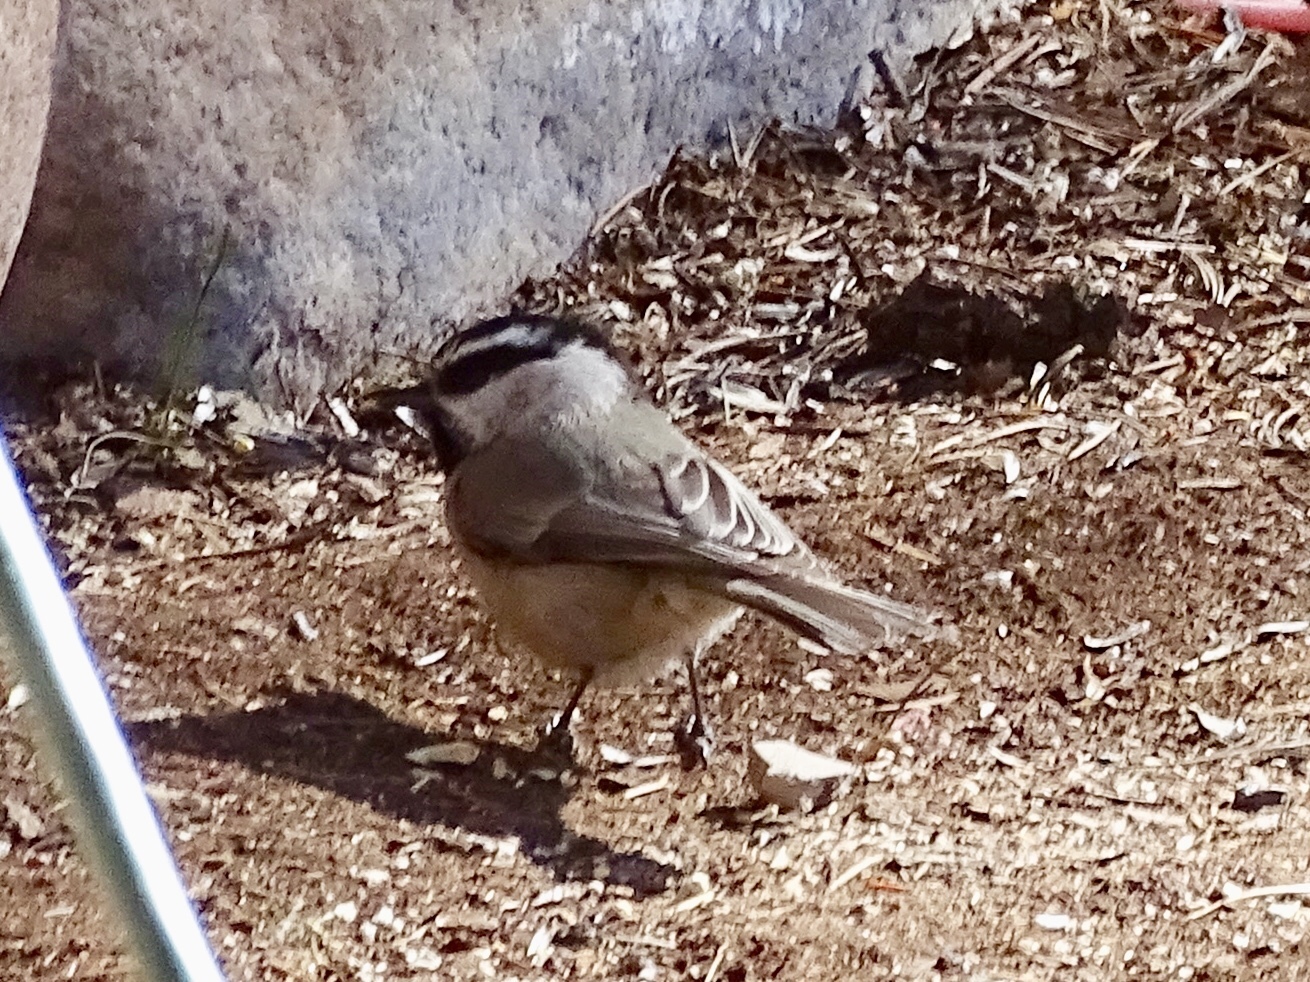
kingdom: Animalia
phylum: Chordata
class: Aves
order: Passeriformes
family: Paridae
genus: Poecile
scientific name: Poecile gambeli
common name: Mountain chickadee
